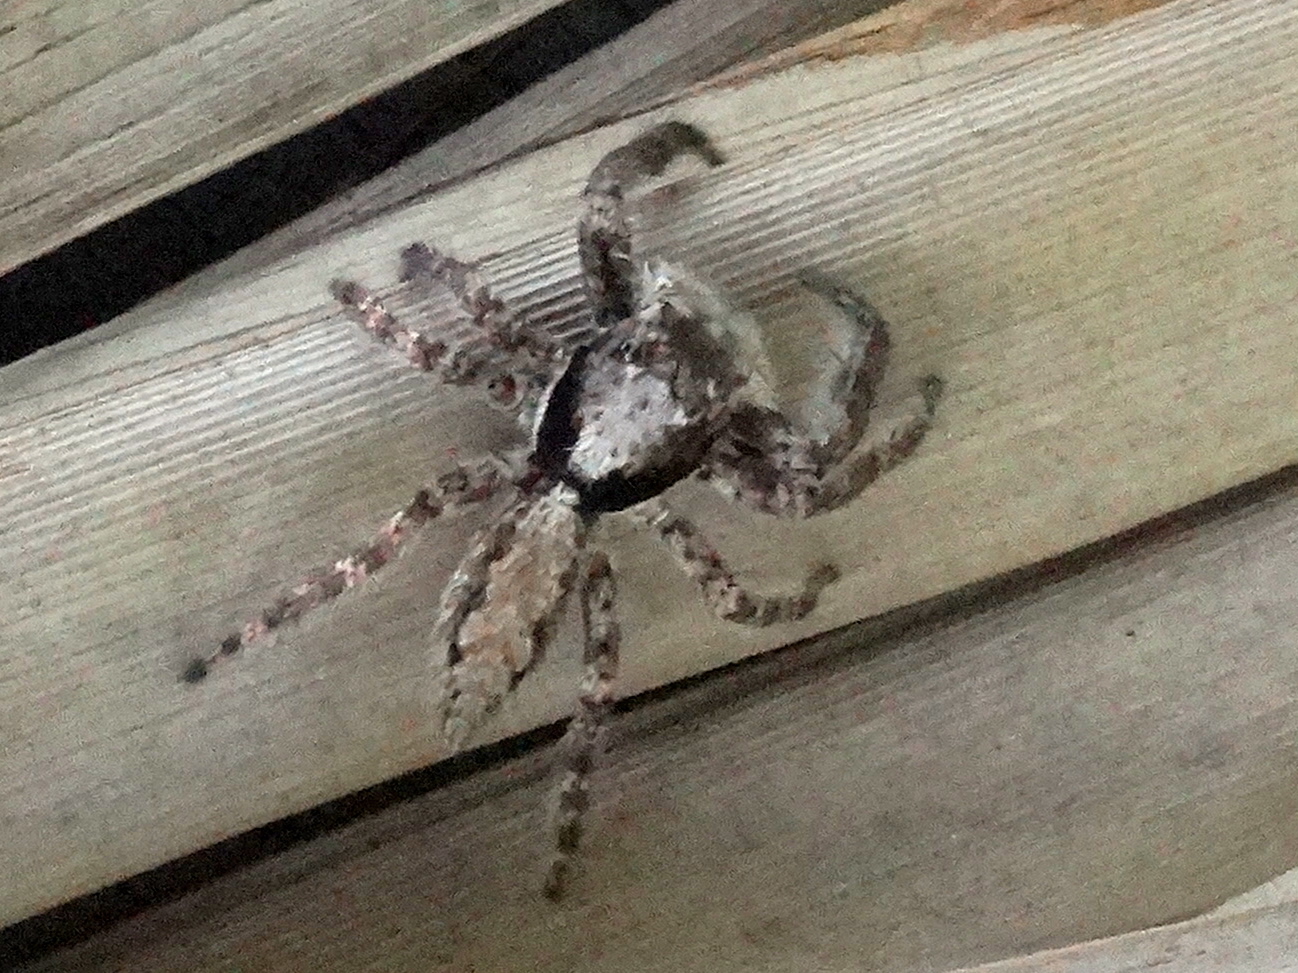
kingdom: Animalia
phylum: Arthropoda
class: Arachnida
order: Araneae
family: Salticidae
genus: Balmaceda
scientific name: Balmaceda
